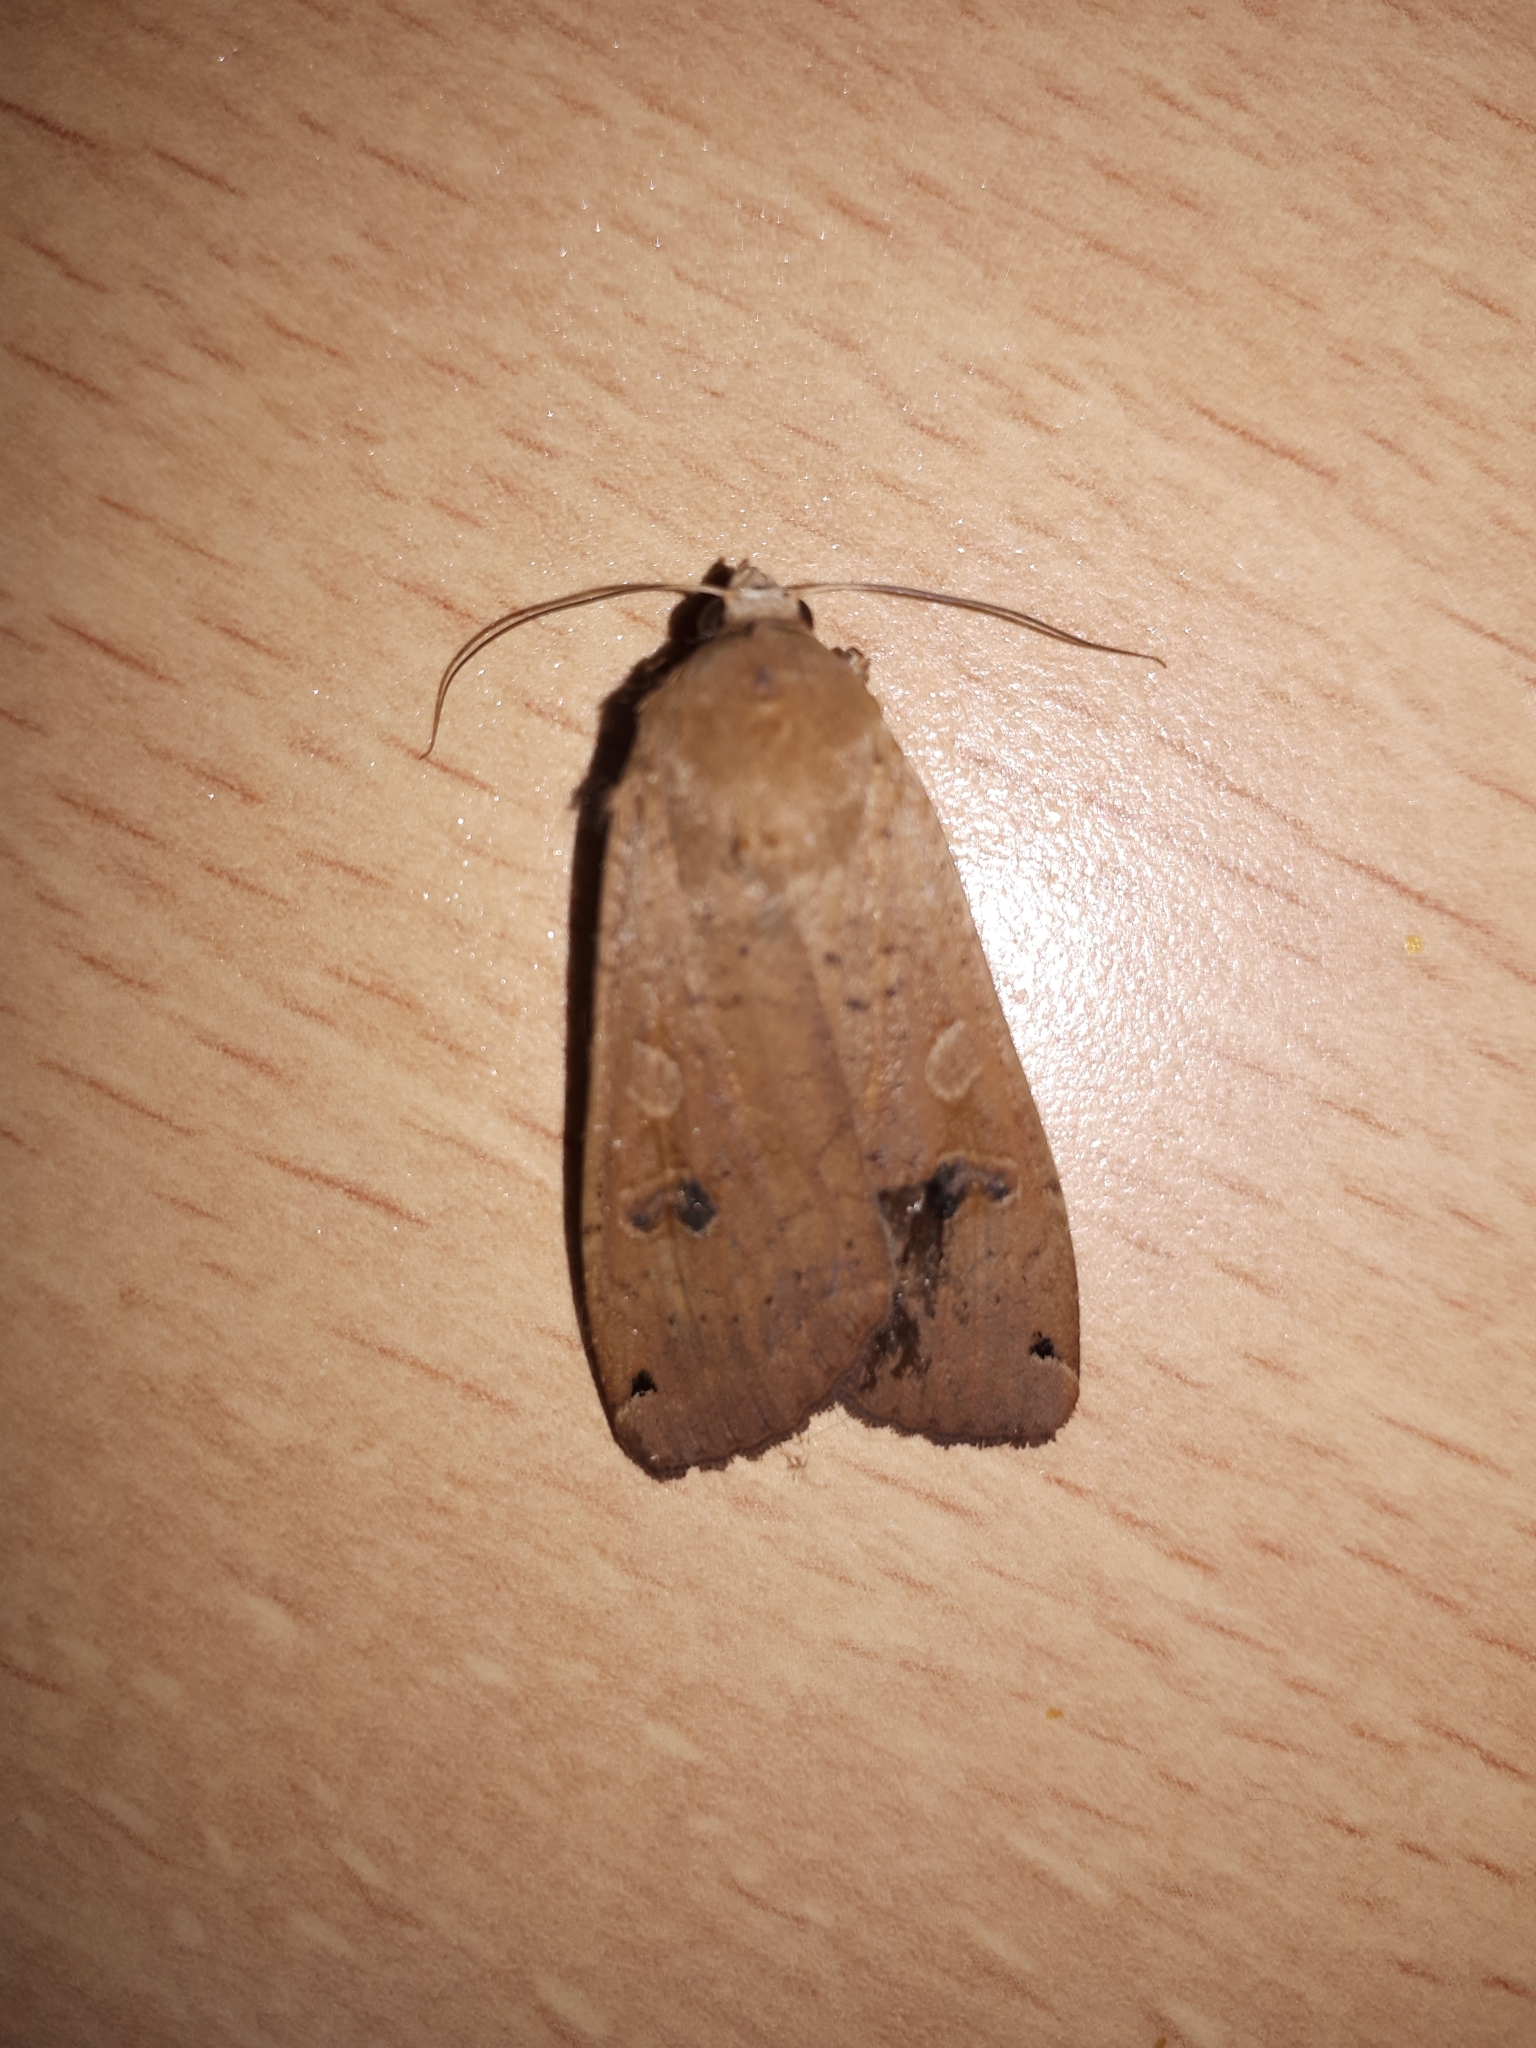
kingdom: Animalia
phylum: Arthropoda
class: Insecta
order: Lepidoptera
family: Noctuidae
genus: Noctua
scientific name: Noctua pronuba
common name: Large yellow underwing
